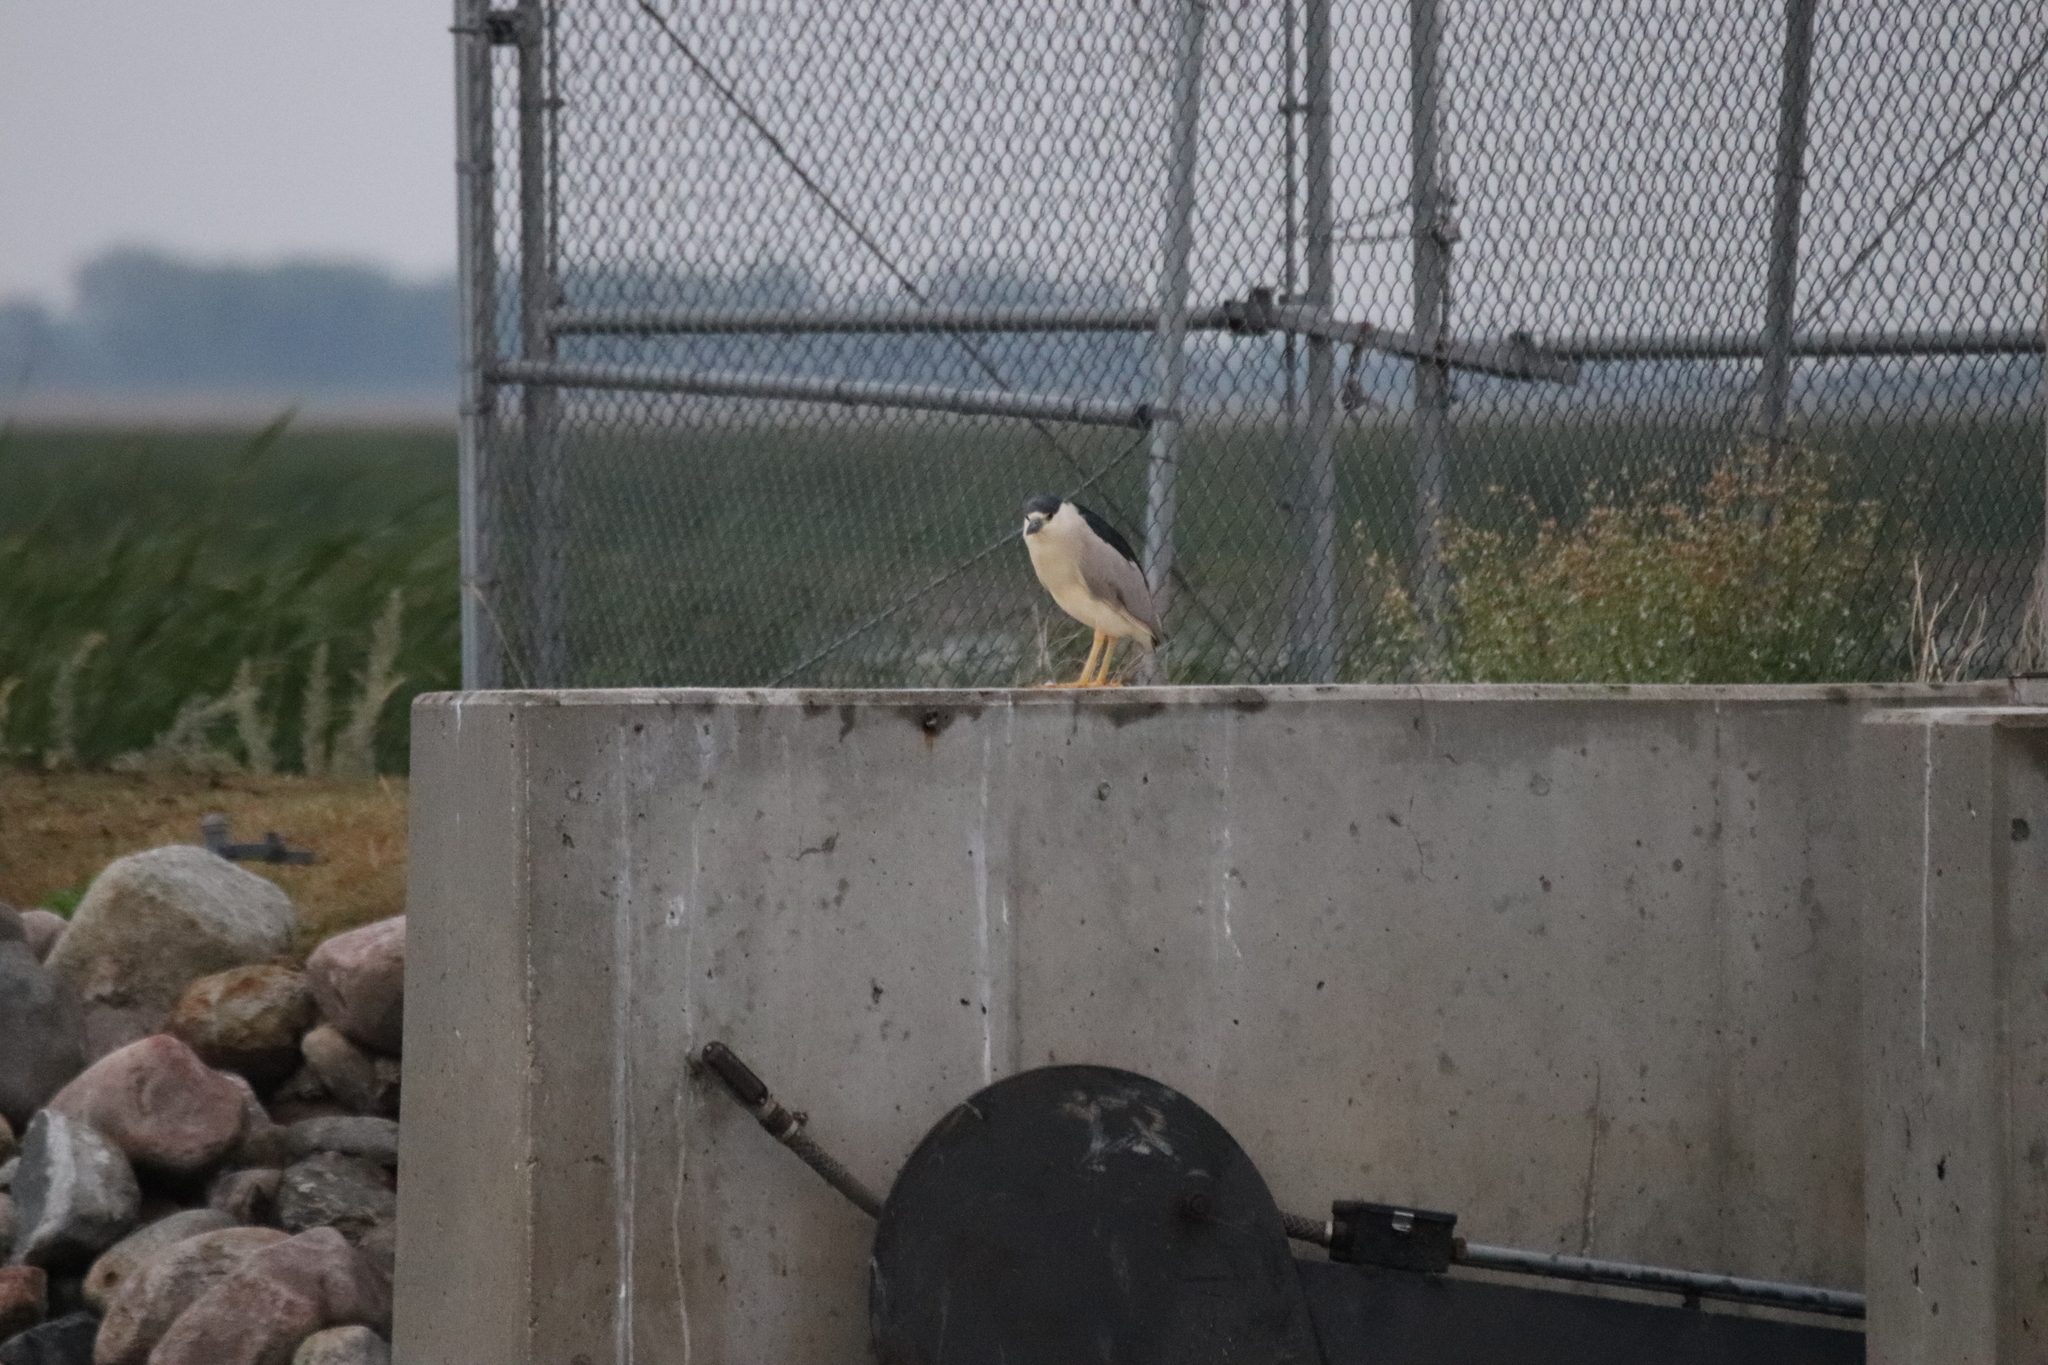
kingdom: Animalia
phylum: Chordata
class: Aves
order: Pelecaniformes
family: Ardeidae
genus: Nycticorax
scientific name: Nycticorax nycticorax
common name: Black-crowned night heron
